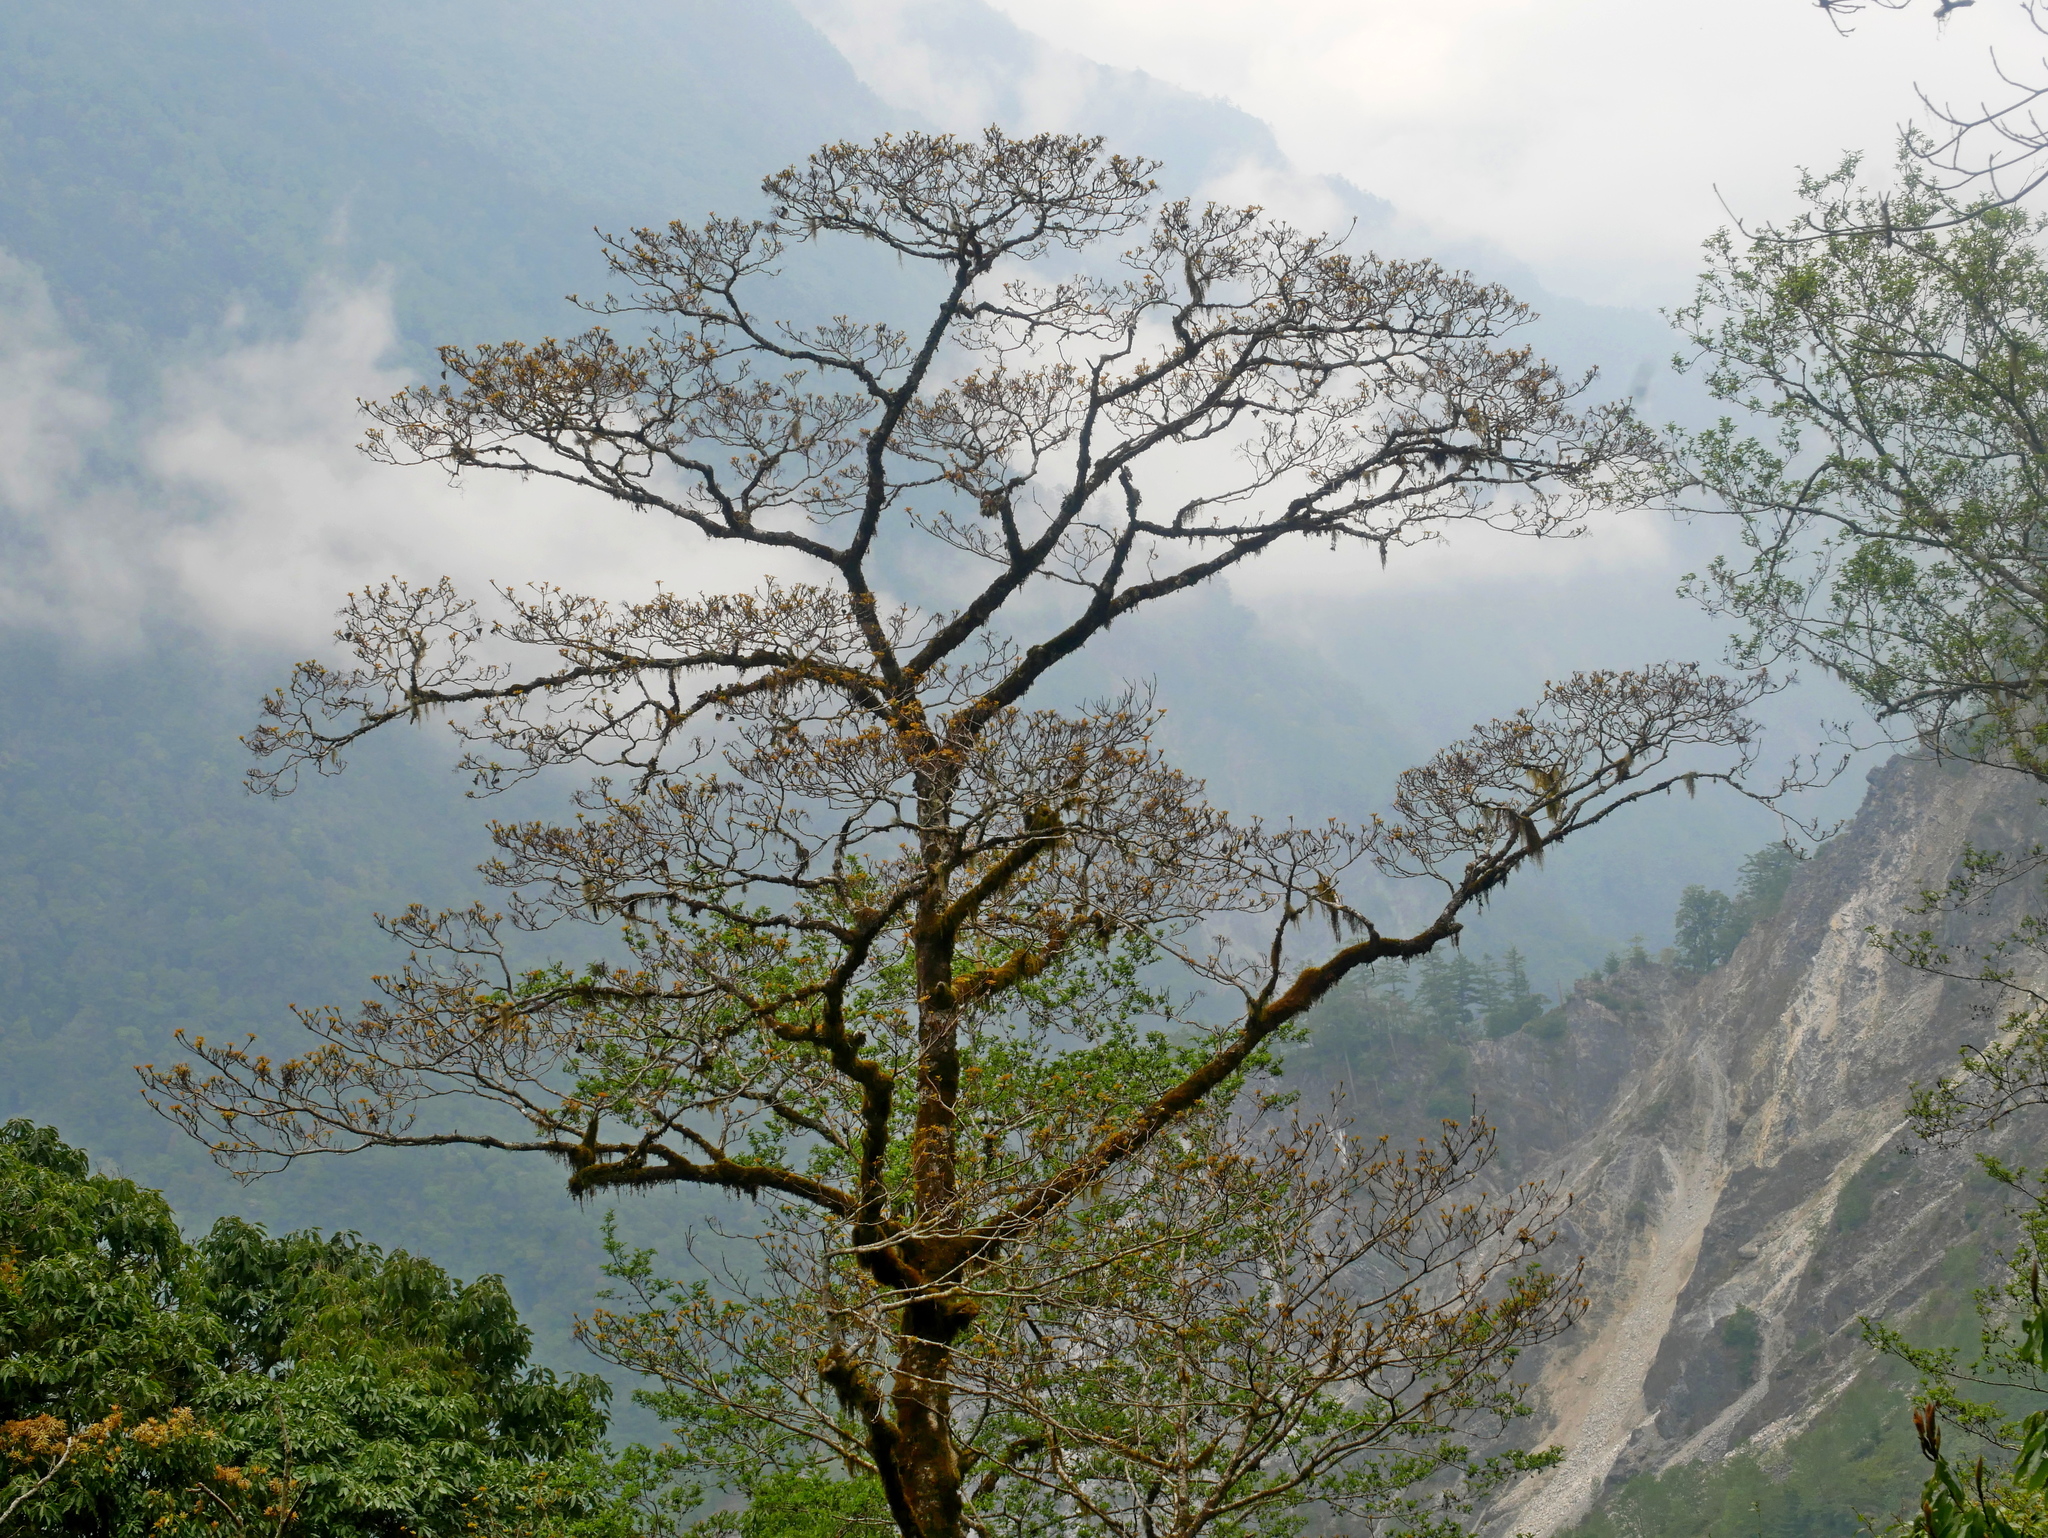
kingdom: Plantae
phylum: Tracheophyta
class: Magnoliopsida
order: Malpighiales
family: Salicaceae
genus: Idesia
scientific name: Idesia polycarpa
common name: Idesia tree
